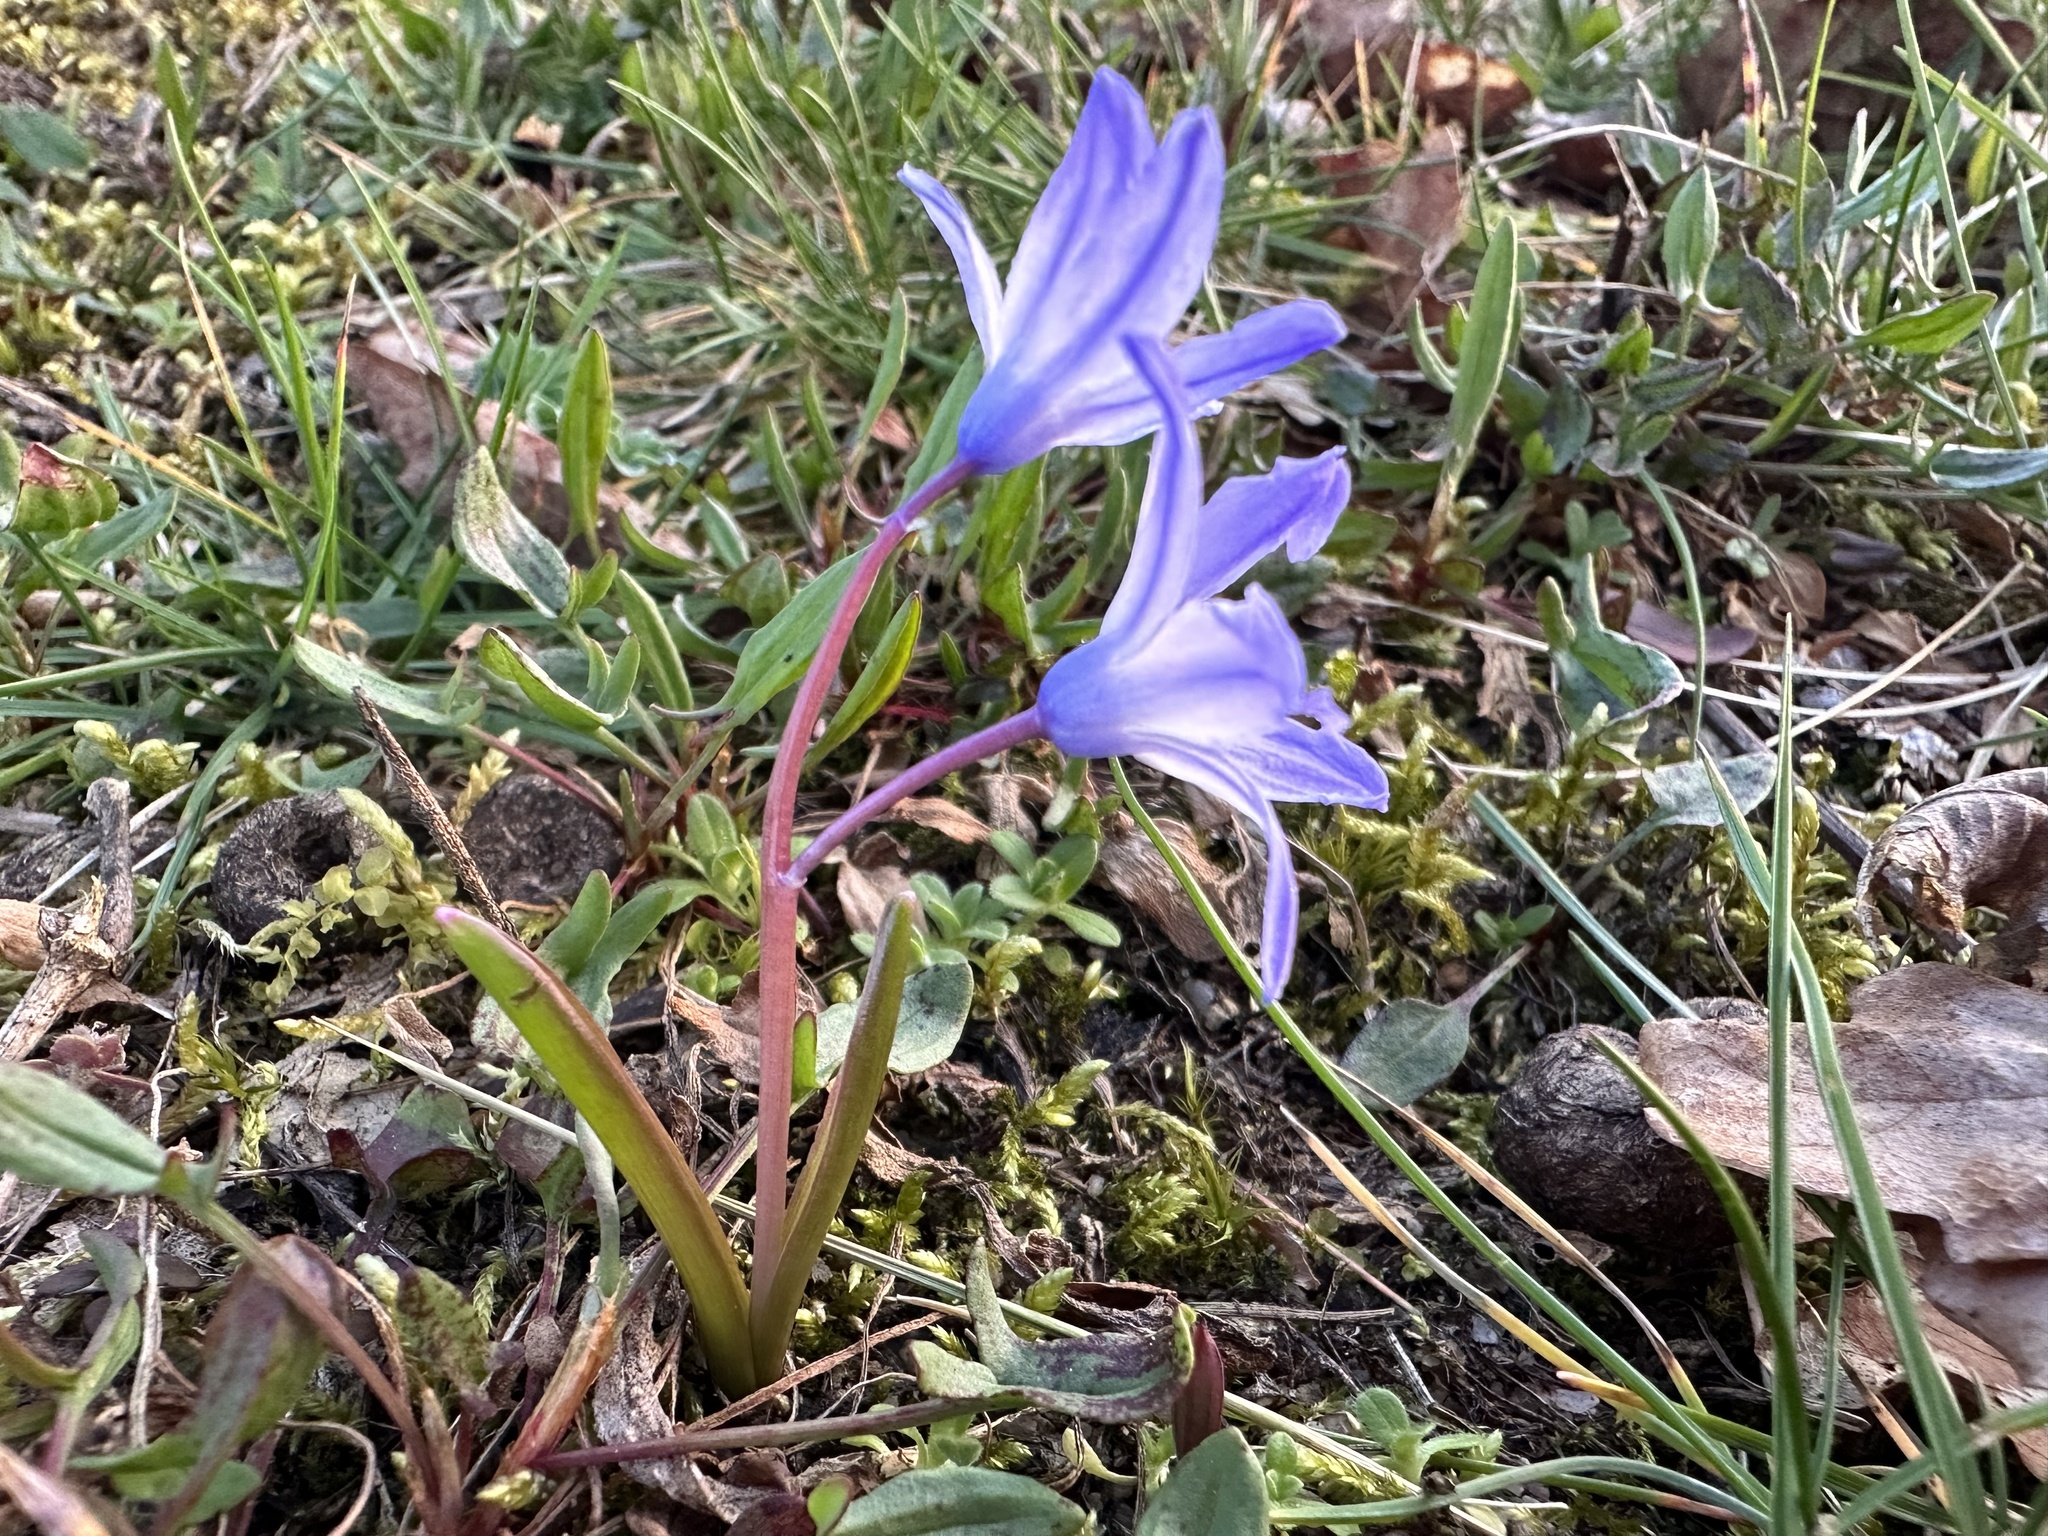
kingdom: Plantae
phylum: Tracheophyta
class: Liliopsida
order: Asparagales
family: Asparagaceae
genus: Scilla
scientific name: Scilla luciliae
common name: Boissier's glory-of-the-snow
